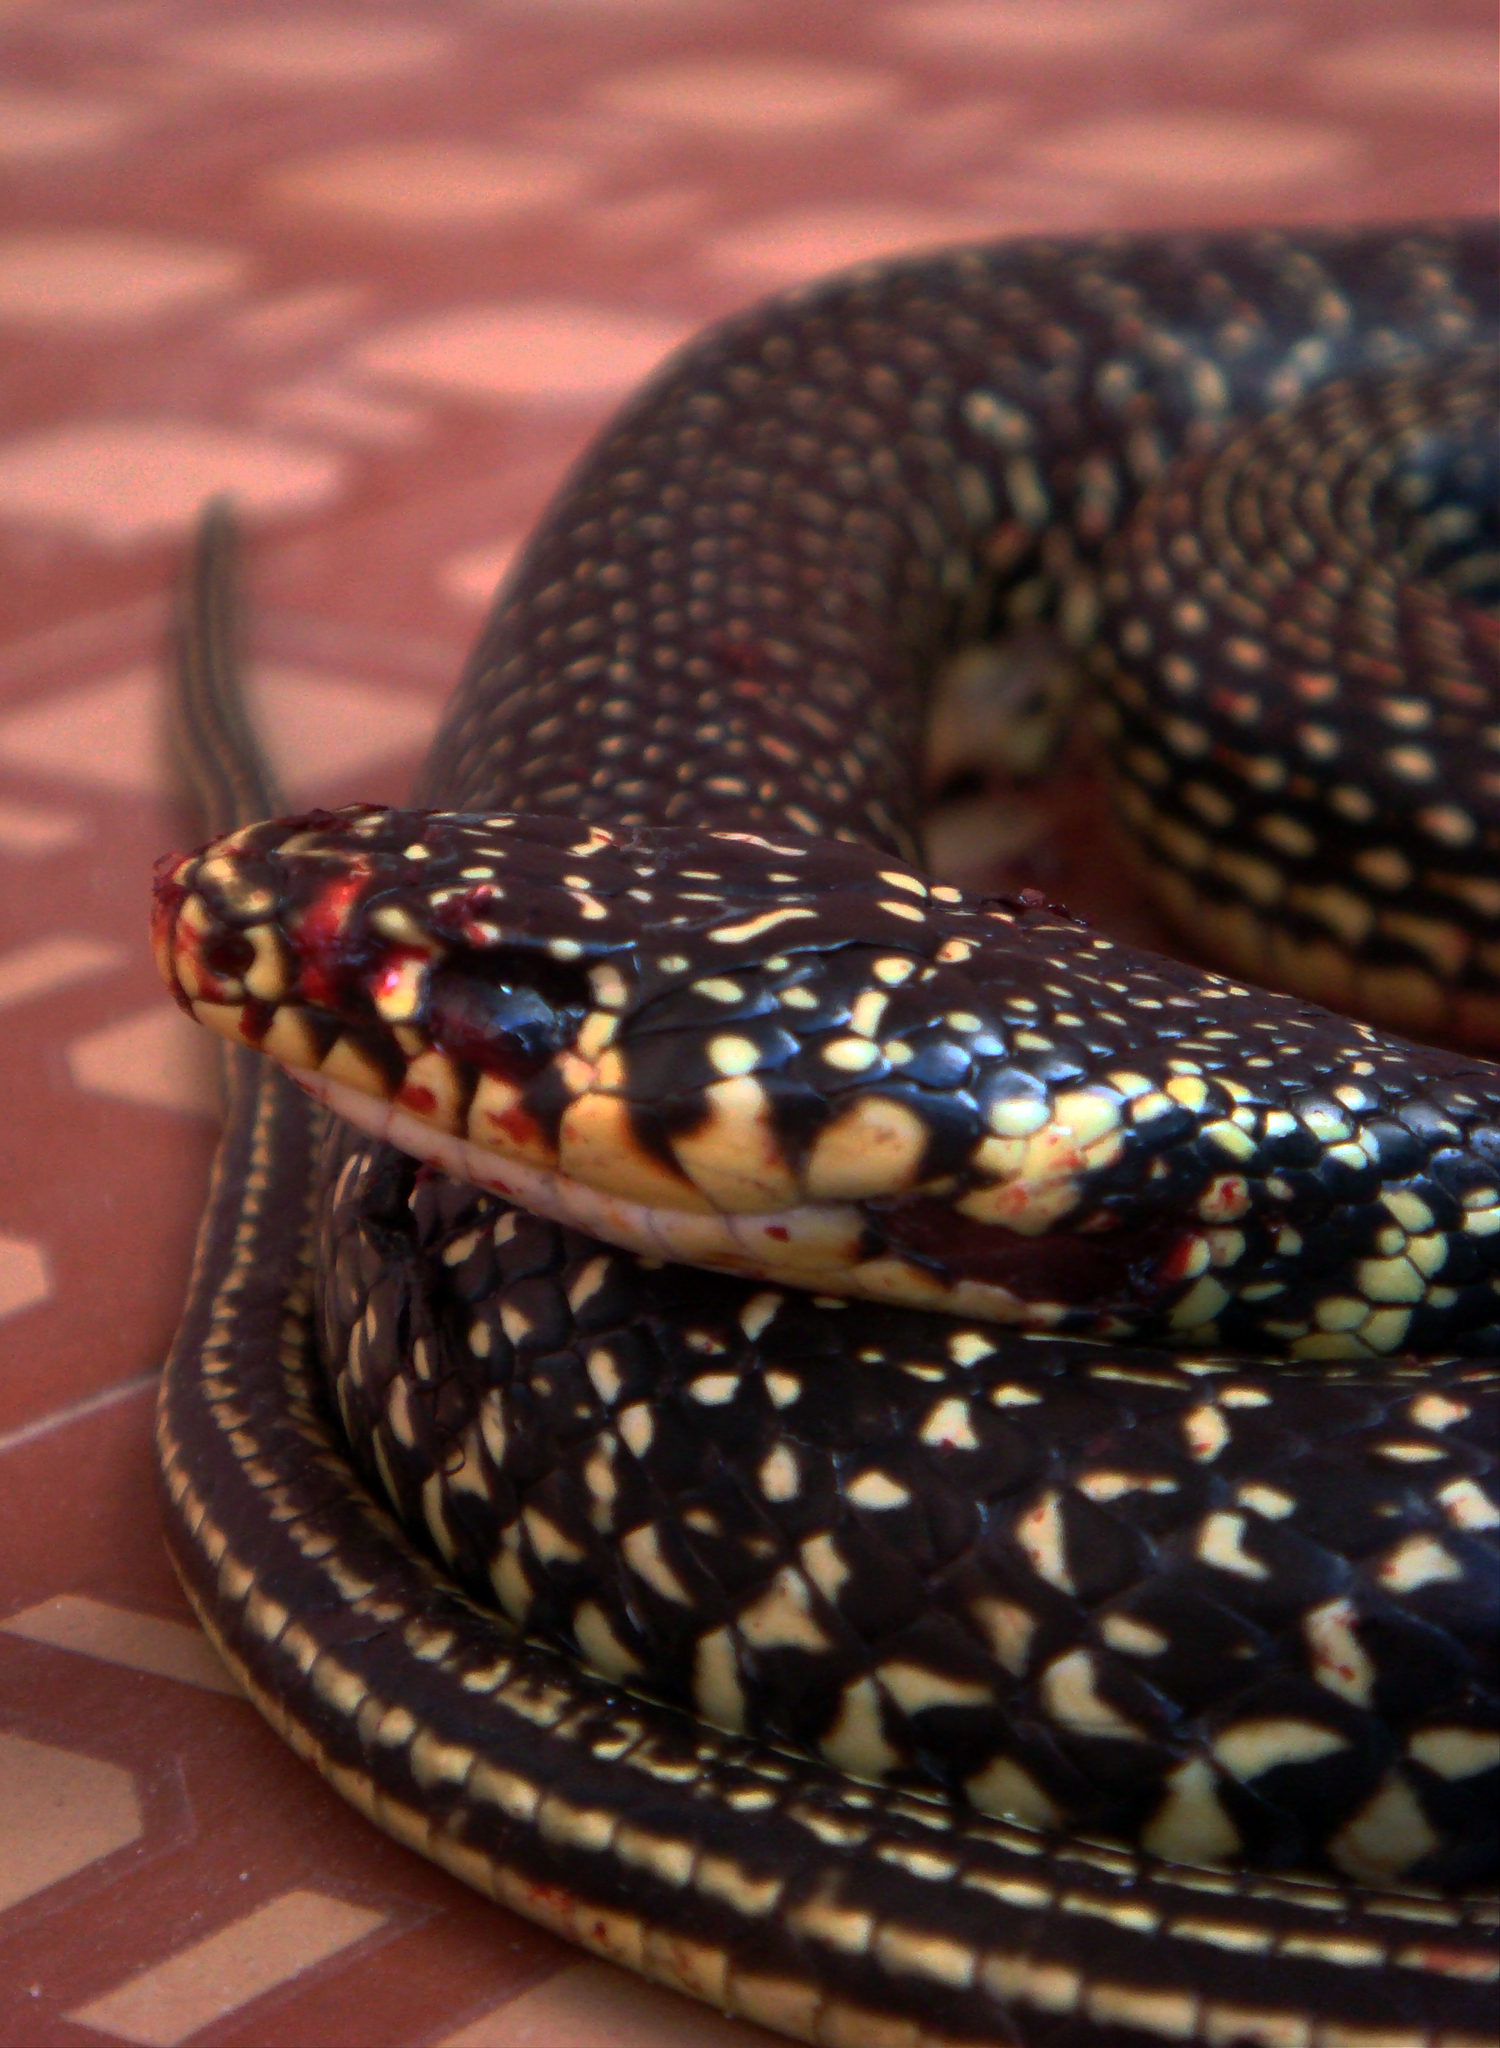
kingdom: Animalia
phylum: Chordata
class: Squamata
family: Colubridae
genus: Hierophis
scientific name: Hierophis viridiflavus
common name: Green whip snake
